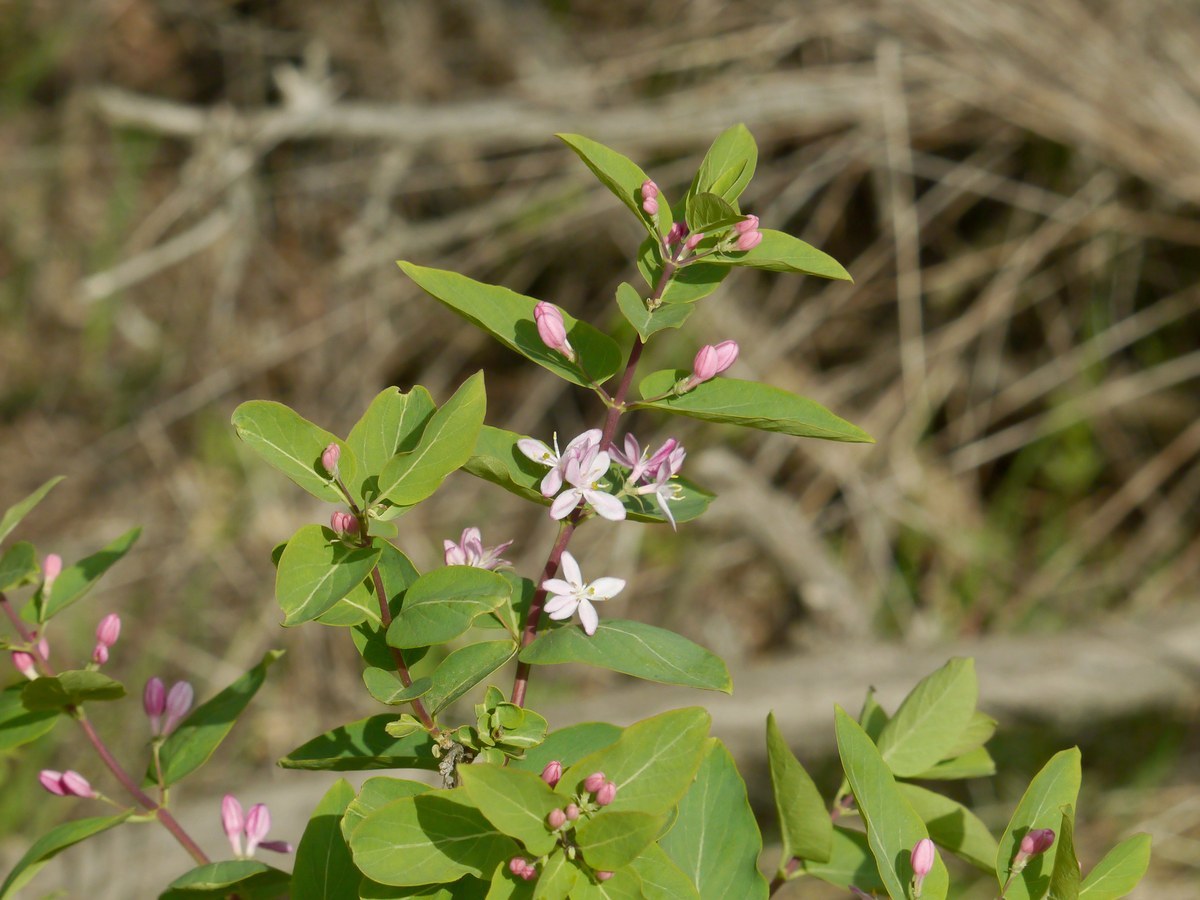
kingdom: Plantae
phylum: Tracheophyta
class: Magnoliopsida
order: Dipsacales
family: Caprifoliaceae
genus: Lonicera
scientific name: Lonicera tatarica
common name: Tatarian honeysuckle
